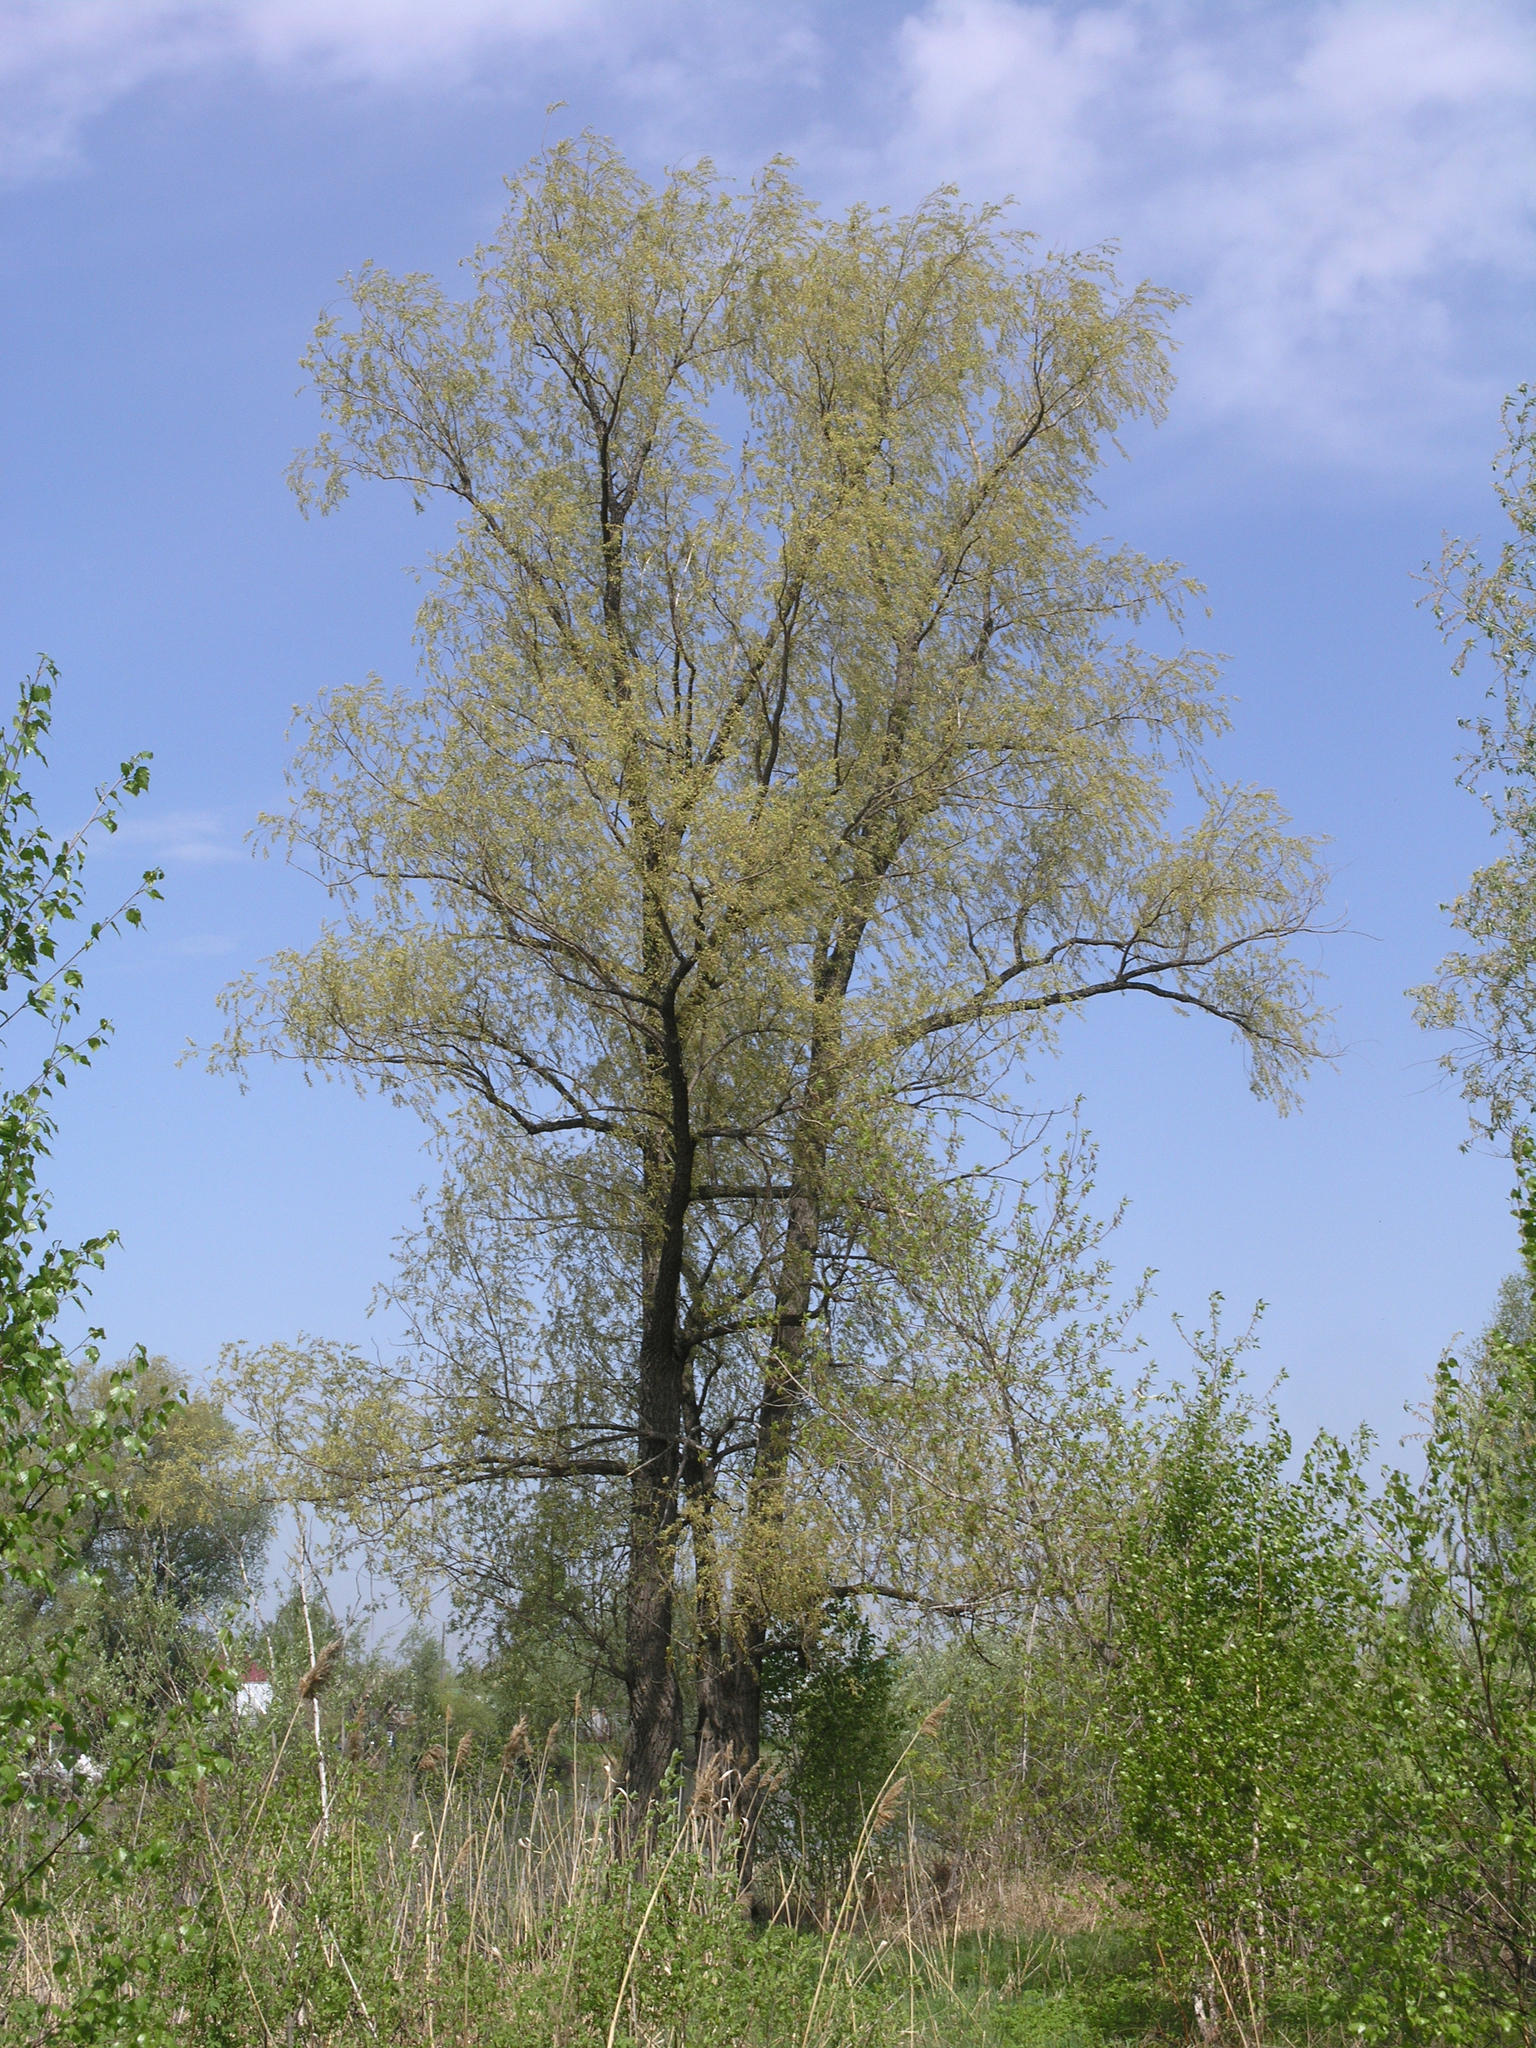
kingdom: Plantae
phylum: Tracheophyta
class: Magnoliopsida
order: Malpighiales
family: Salicaceae
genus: Salix
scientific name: Salix alba
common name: White willow
